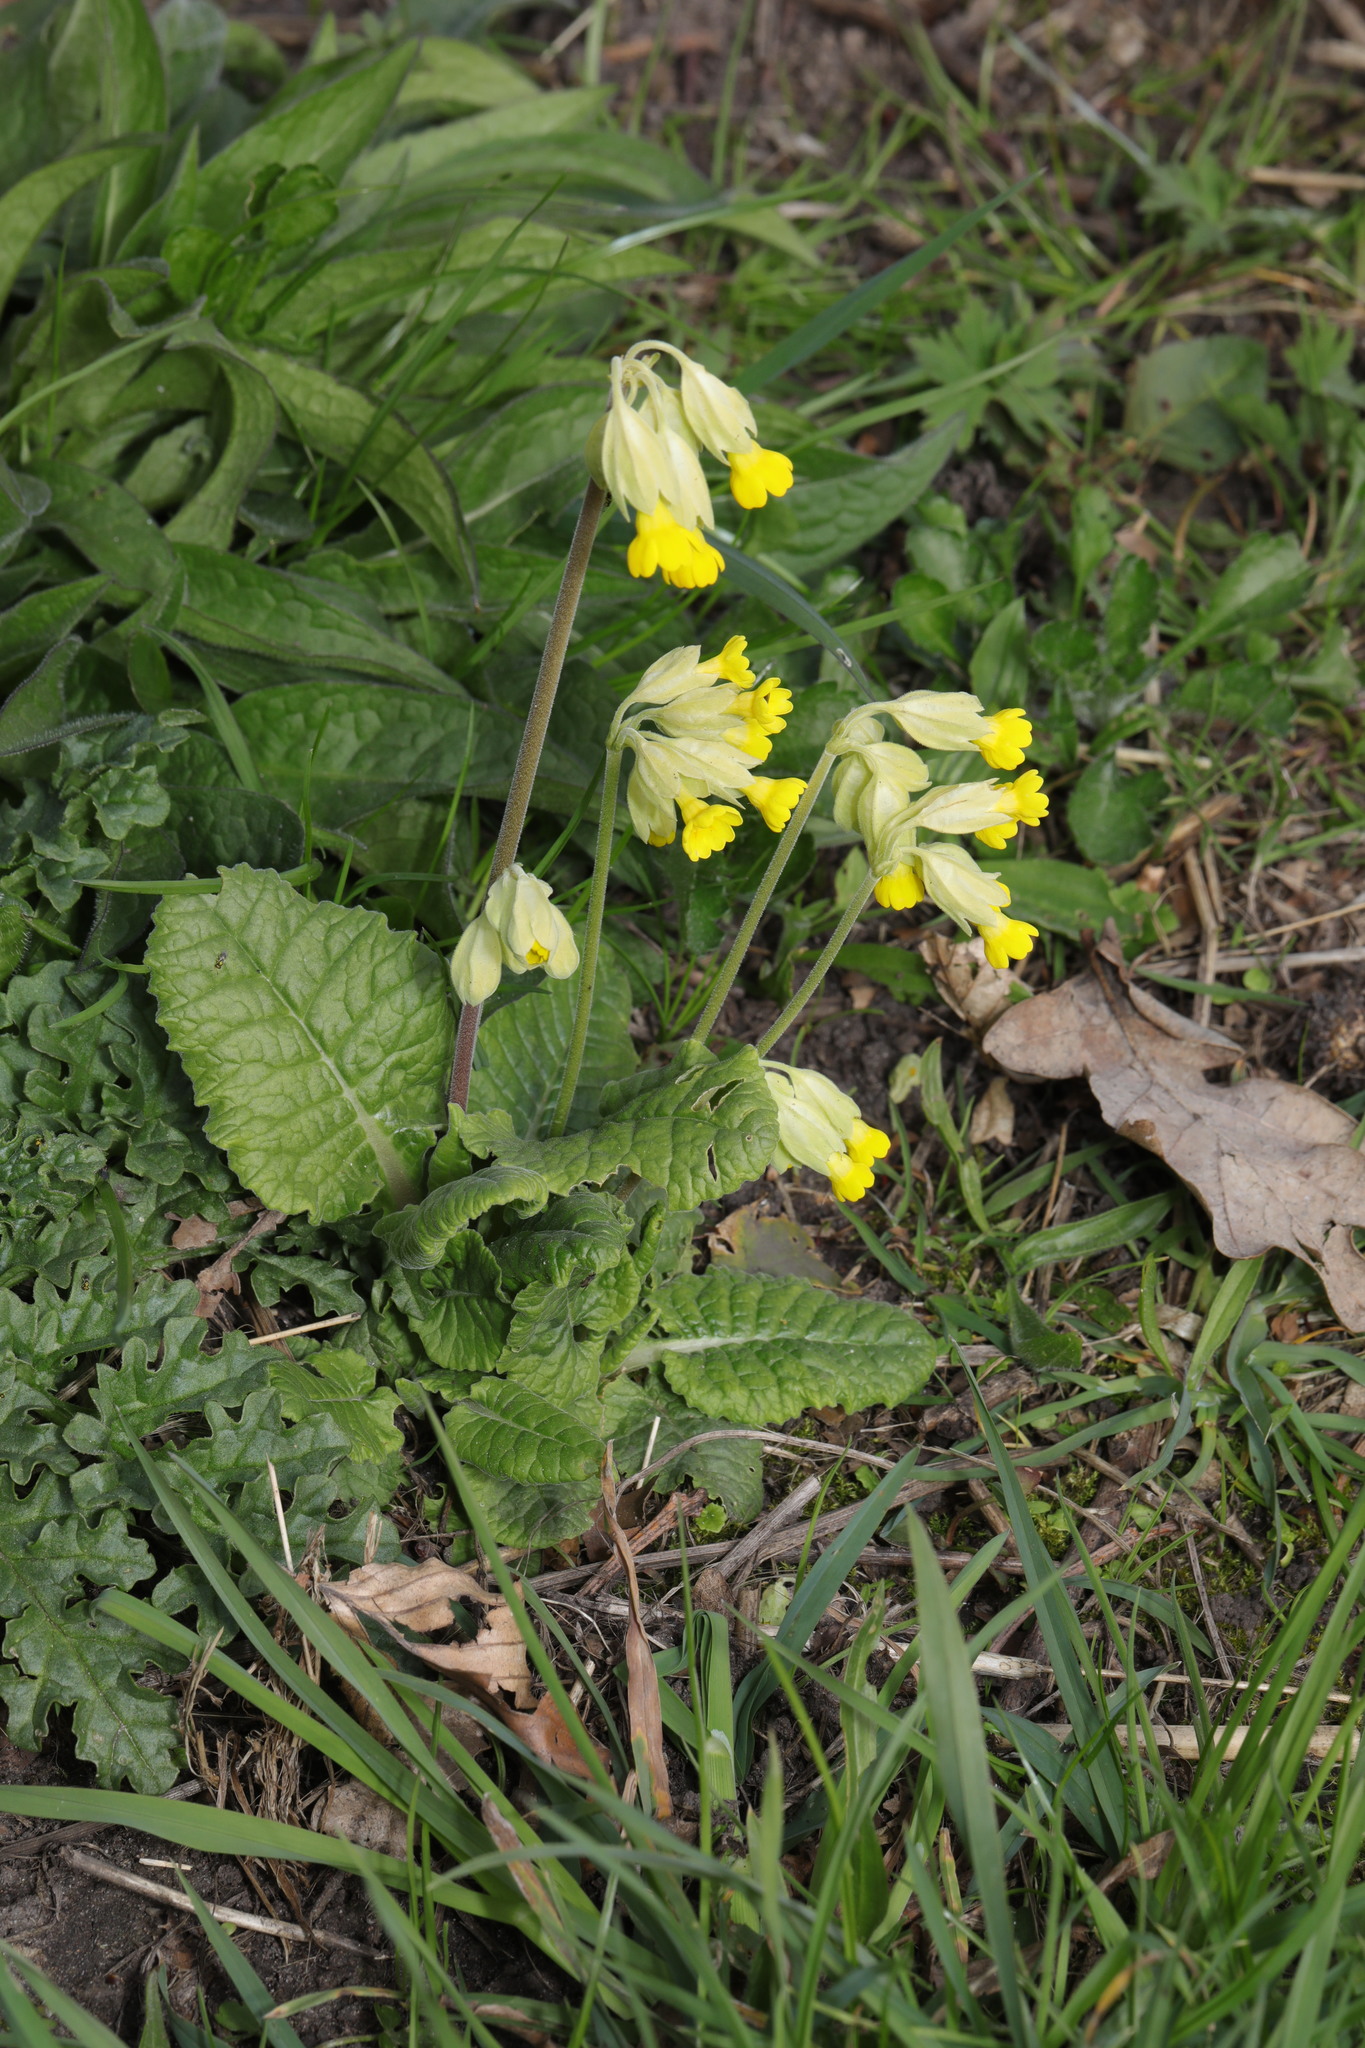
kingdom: Plantae
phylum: Tracheophyta
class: Magnoliopsida
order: Ericales
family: Primulaceae
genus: Primula
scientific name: Primula veris
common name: Cowslip
